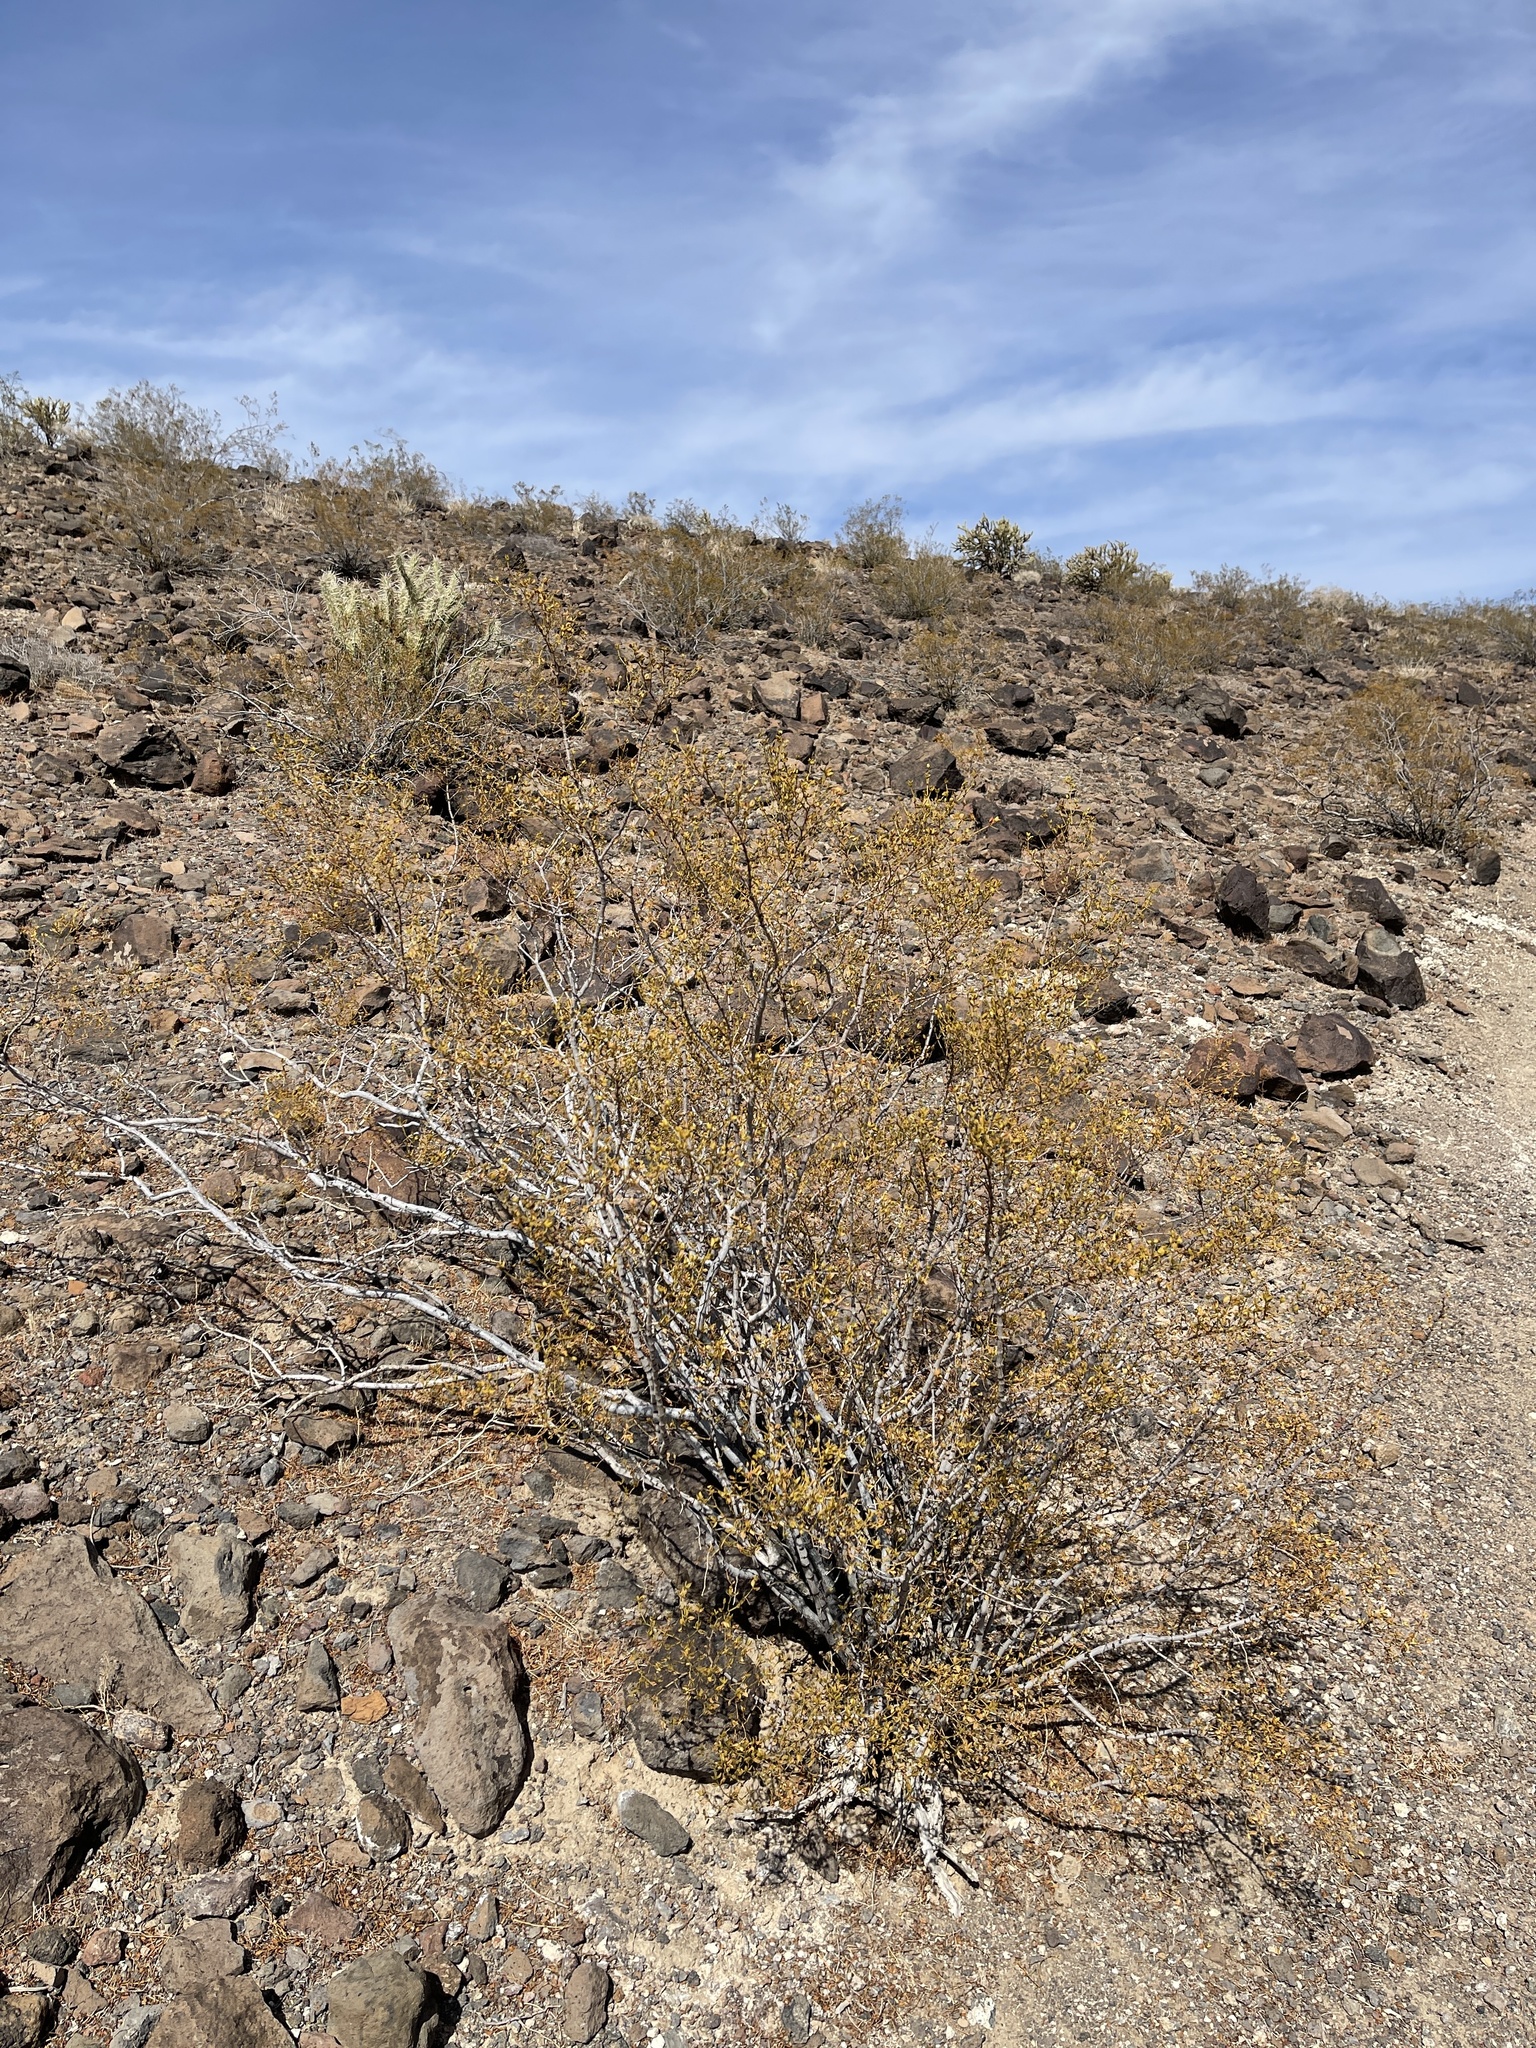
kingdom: Plantae
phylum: Tracheophyta
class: Magnoliopsida
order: Zygophyllales
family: Zygophyllaceae
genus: Larrea
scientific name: Larrea tridentata
